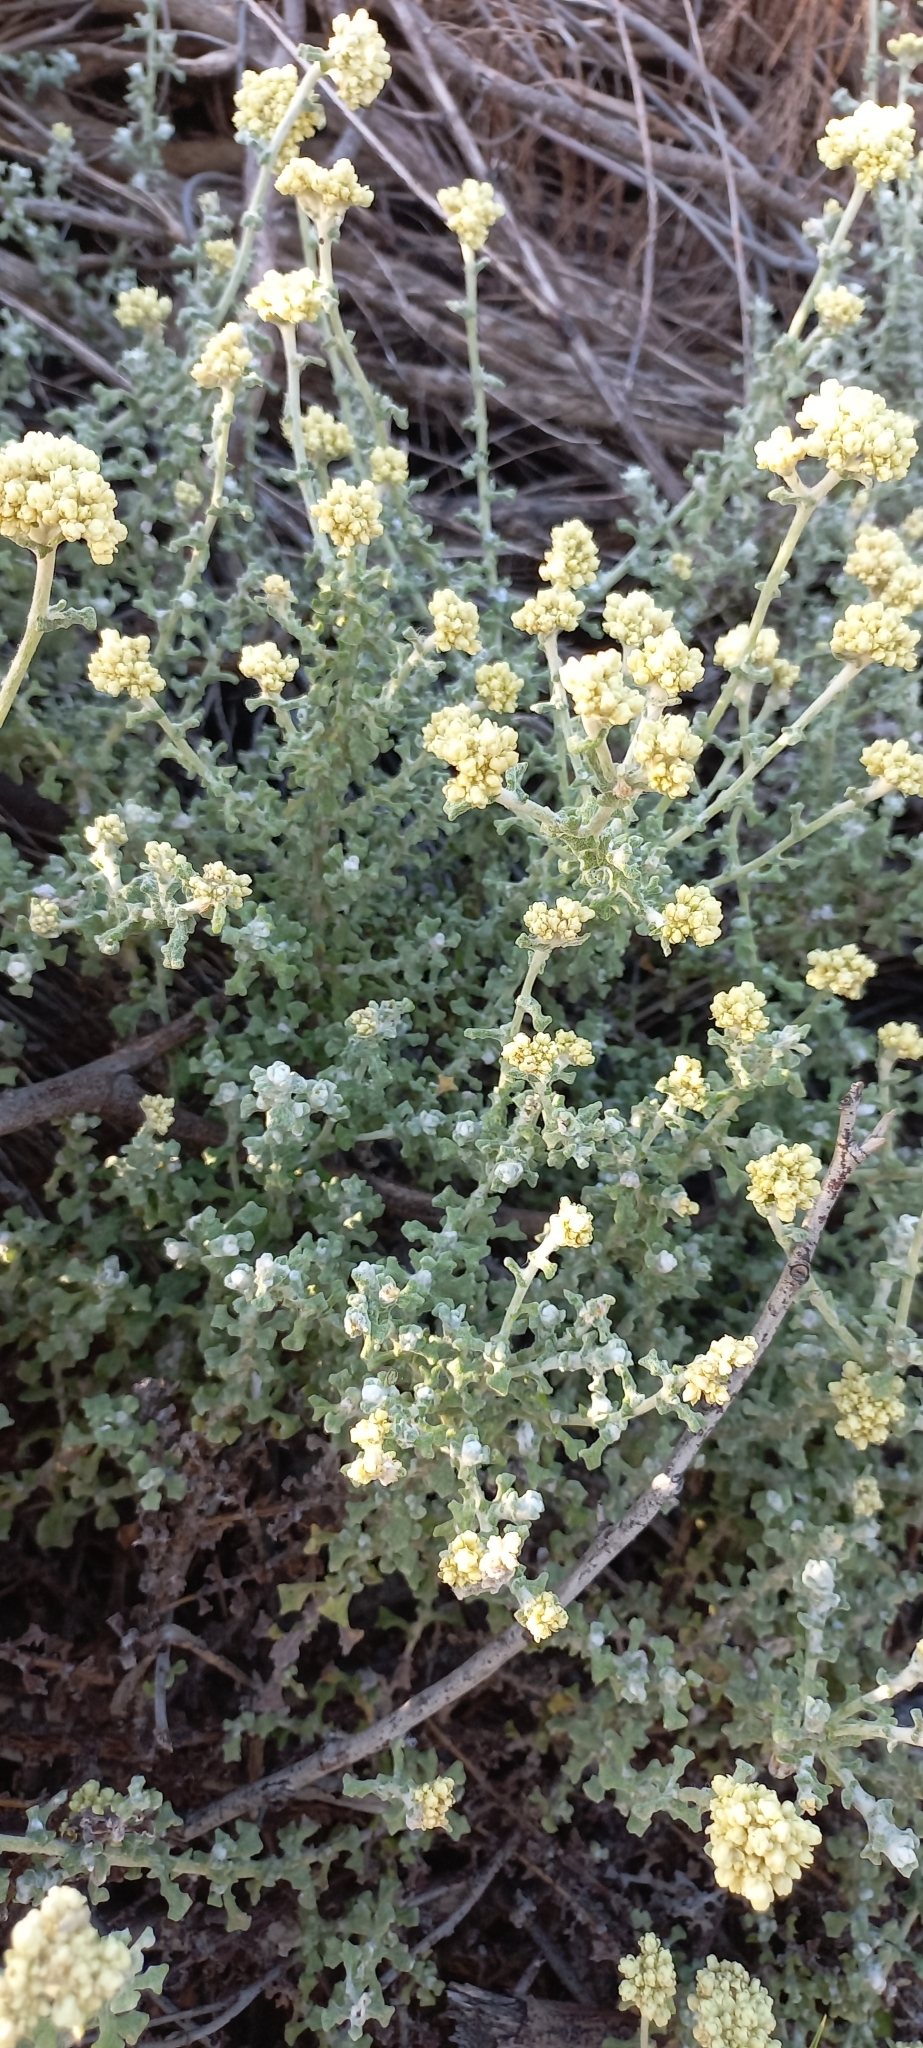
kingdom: Plantae
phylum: Tracheophyta
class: Magnoliopsida
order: Asterales
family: Asteraceae
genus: Helichrysum
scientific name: Helichrysum patulum
